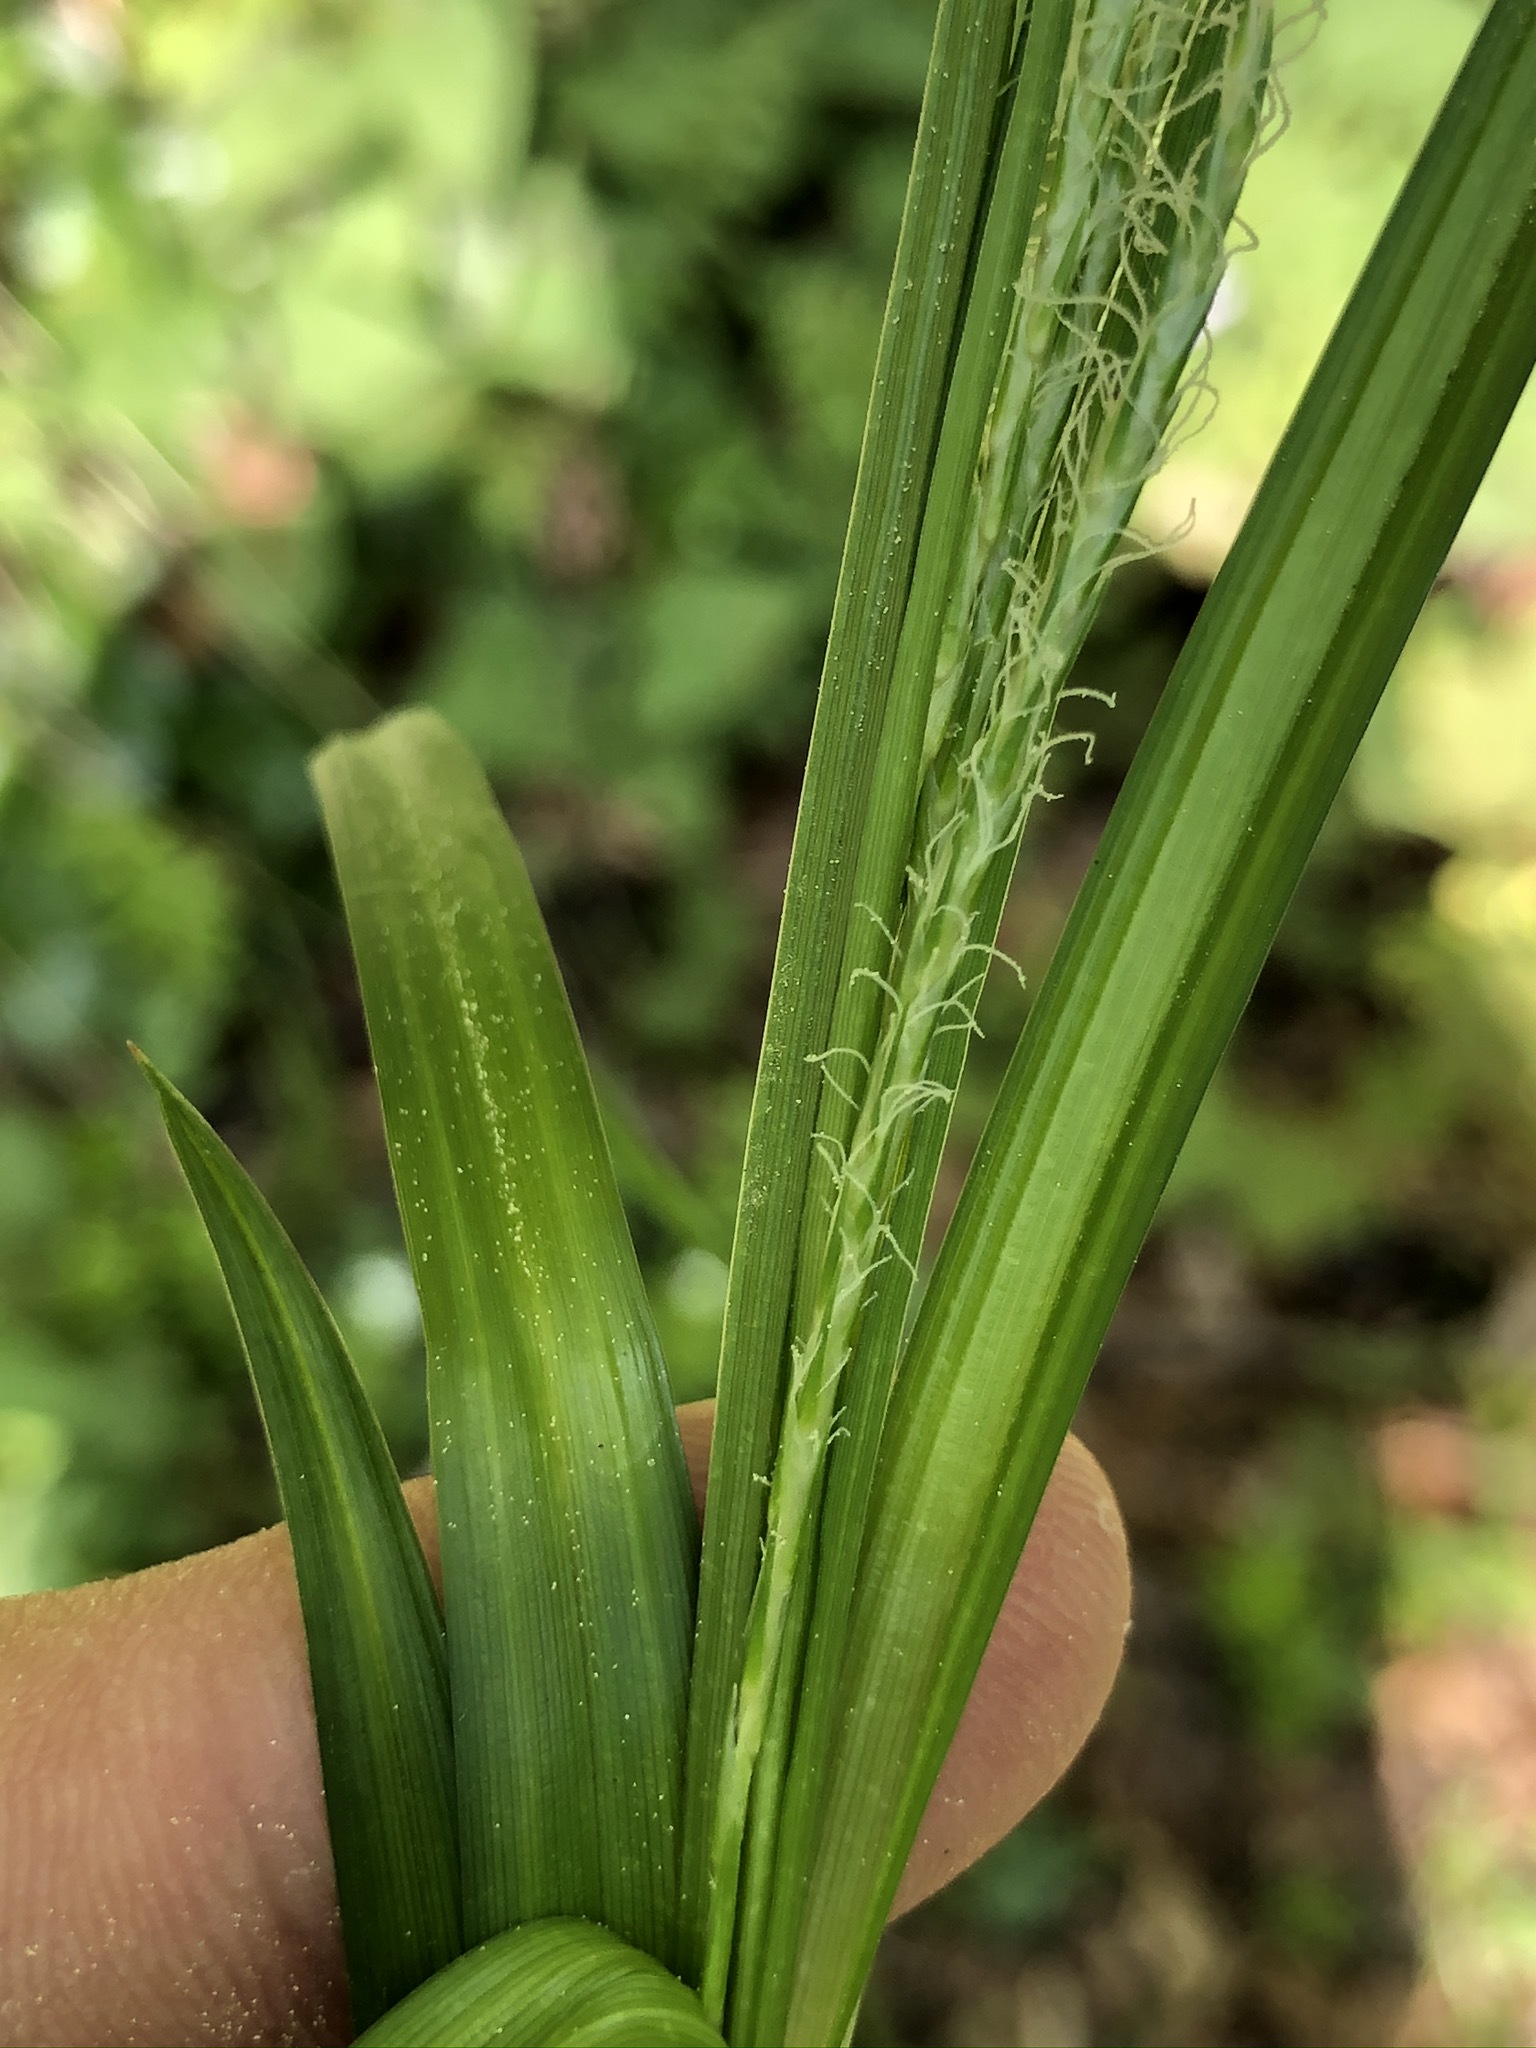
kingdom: Plantae
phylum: Tracheophyta
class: Liliopsida
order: Poales
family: Cyperaceae
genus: Carex
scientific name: Carex sylvatica
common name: Wood-sedge
